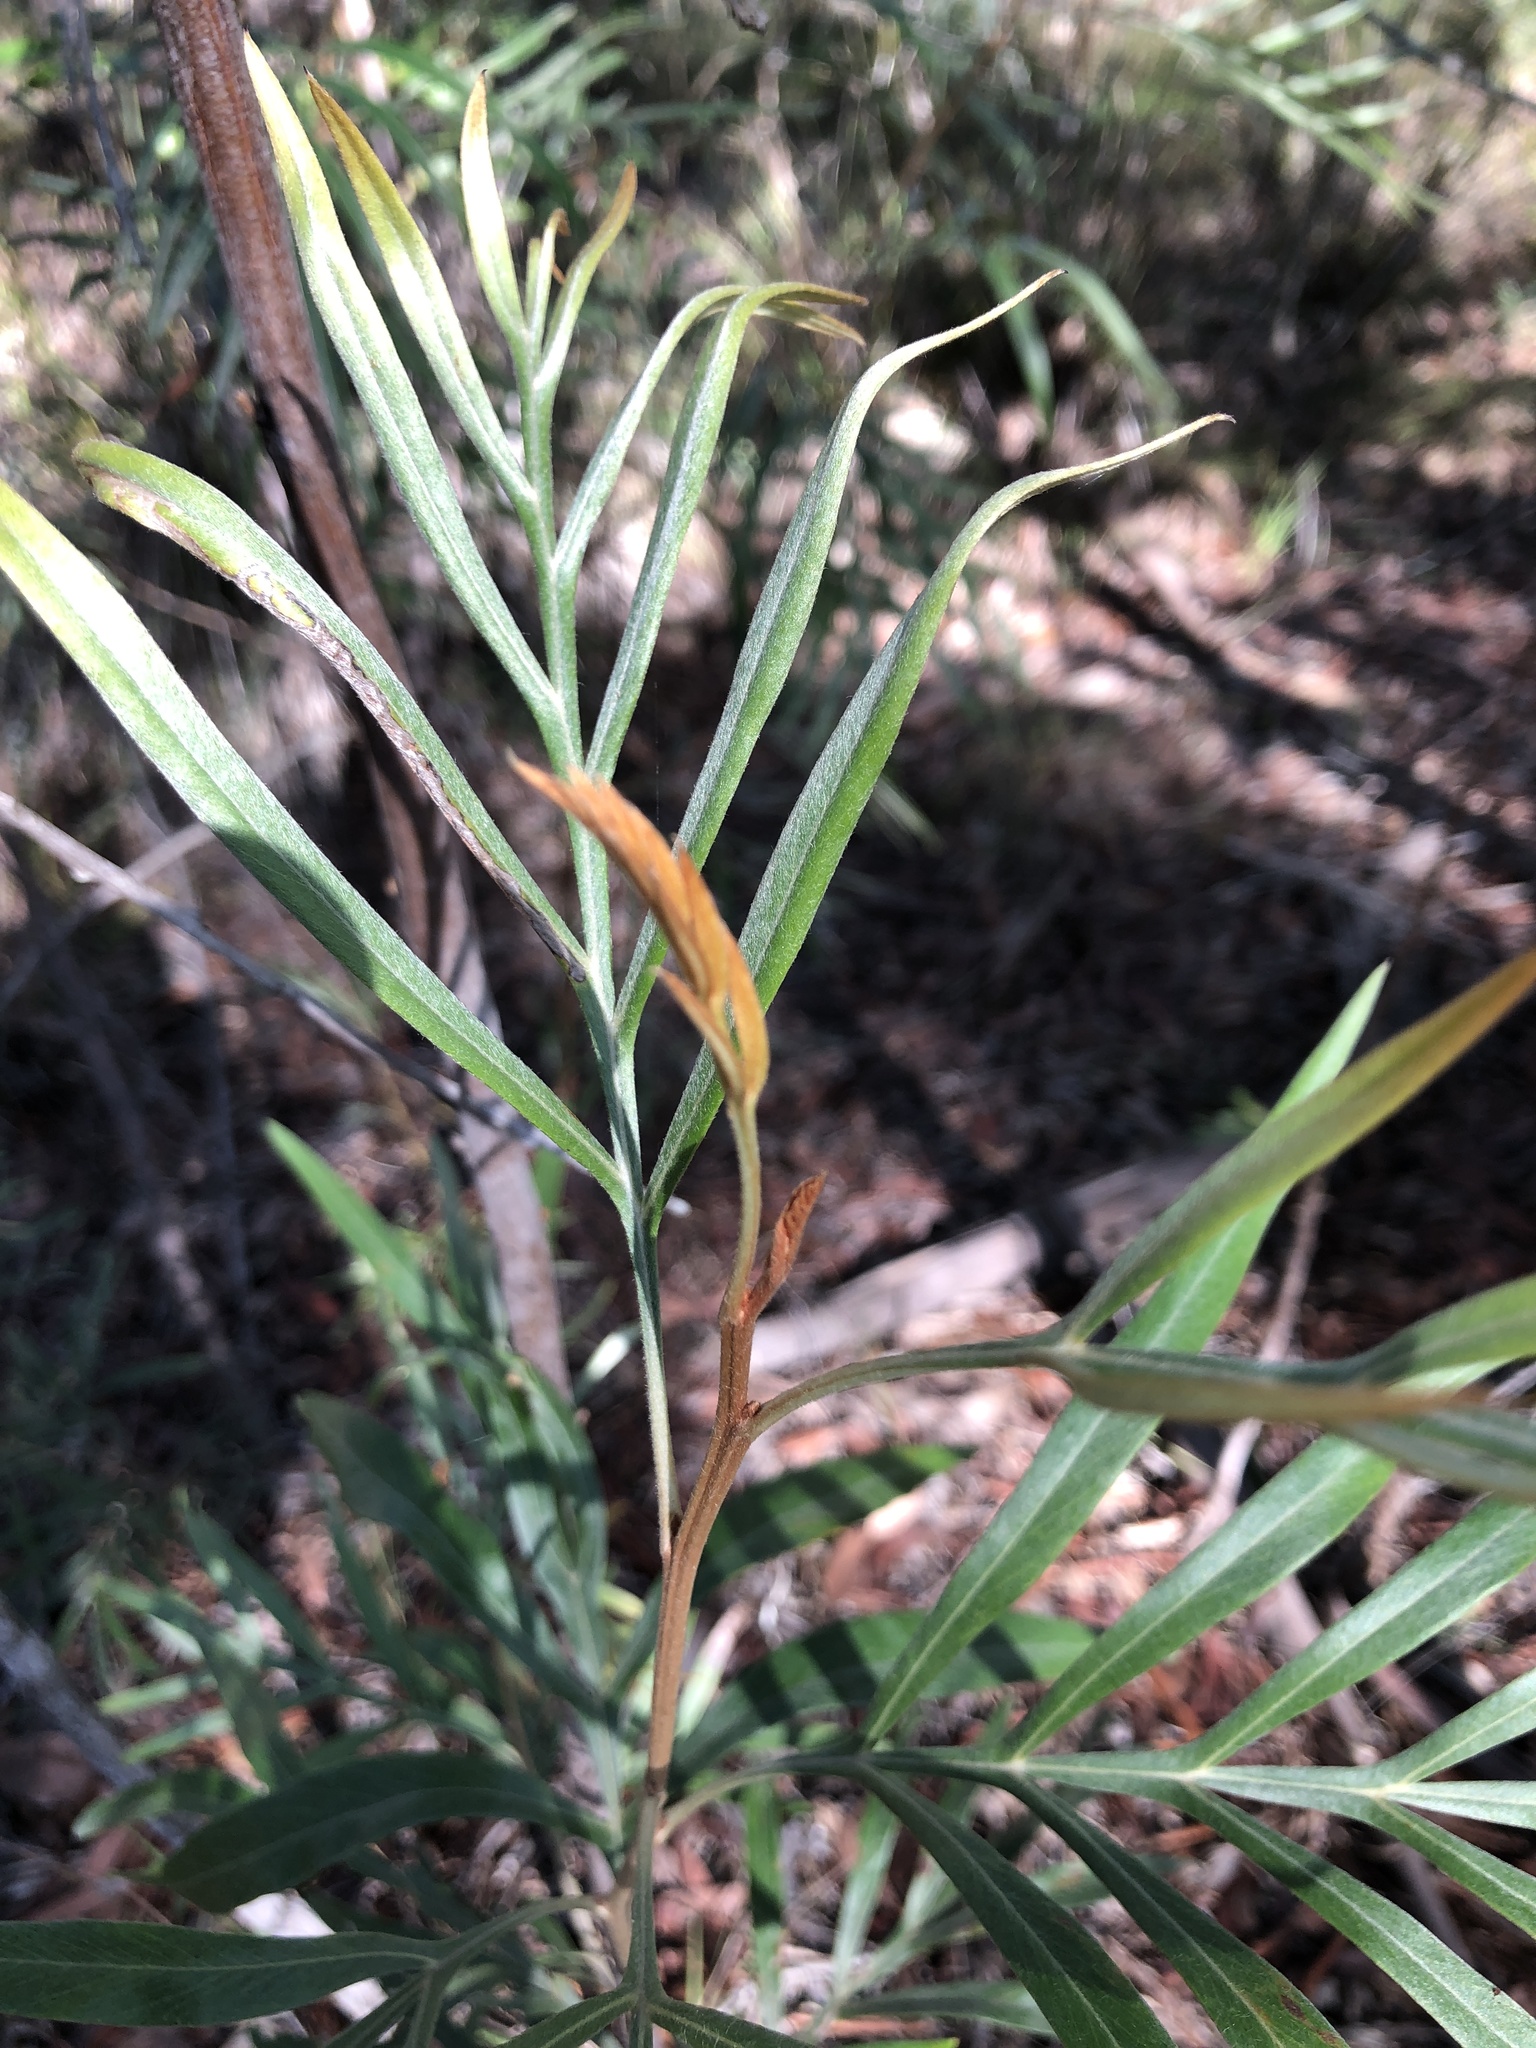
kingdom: Plantae
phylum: Tracheophyta
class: Magnoliopsida
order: Proteales
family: Proteaceae
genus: Grevillea
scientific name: Grevillea banksii
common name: Kahili flower
